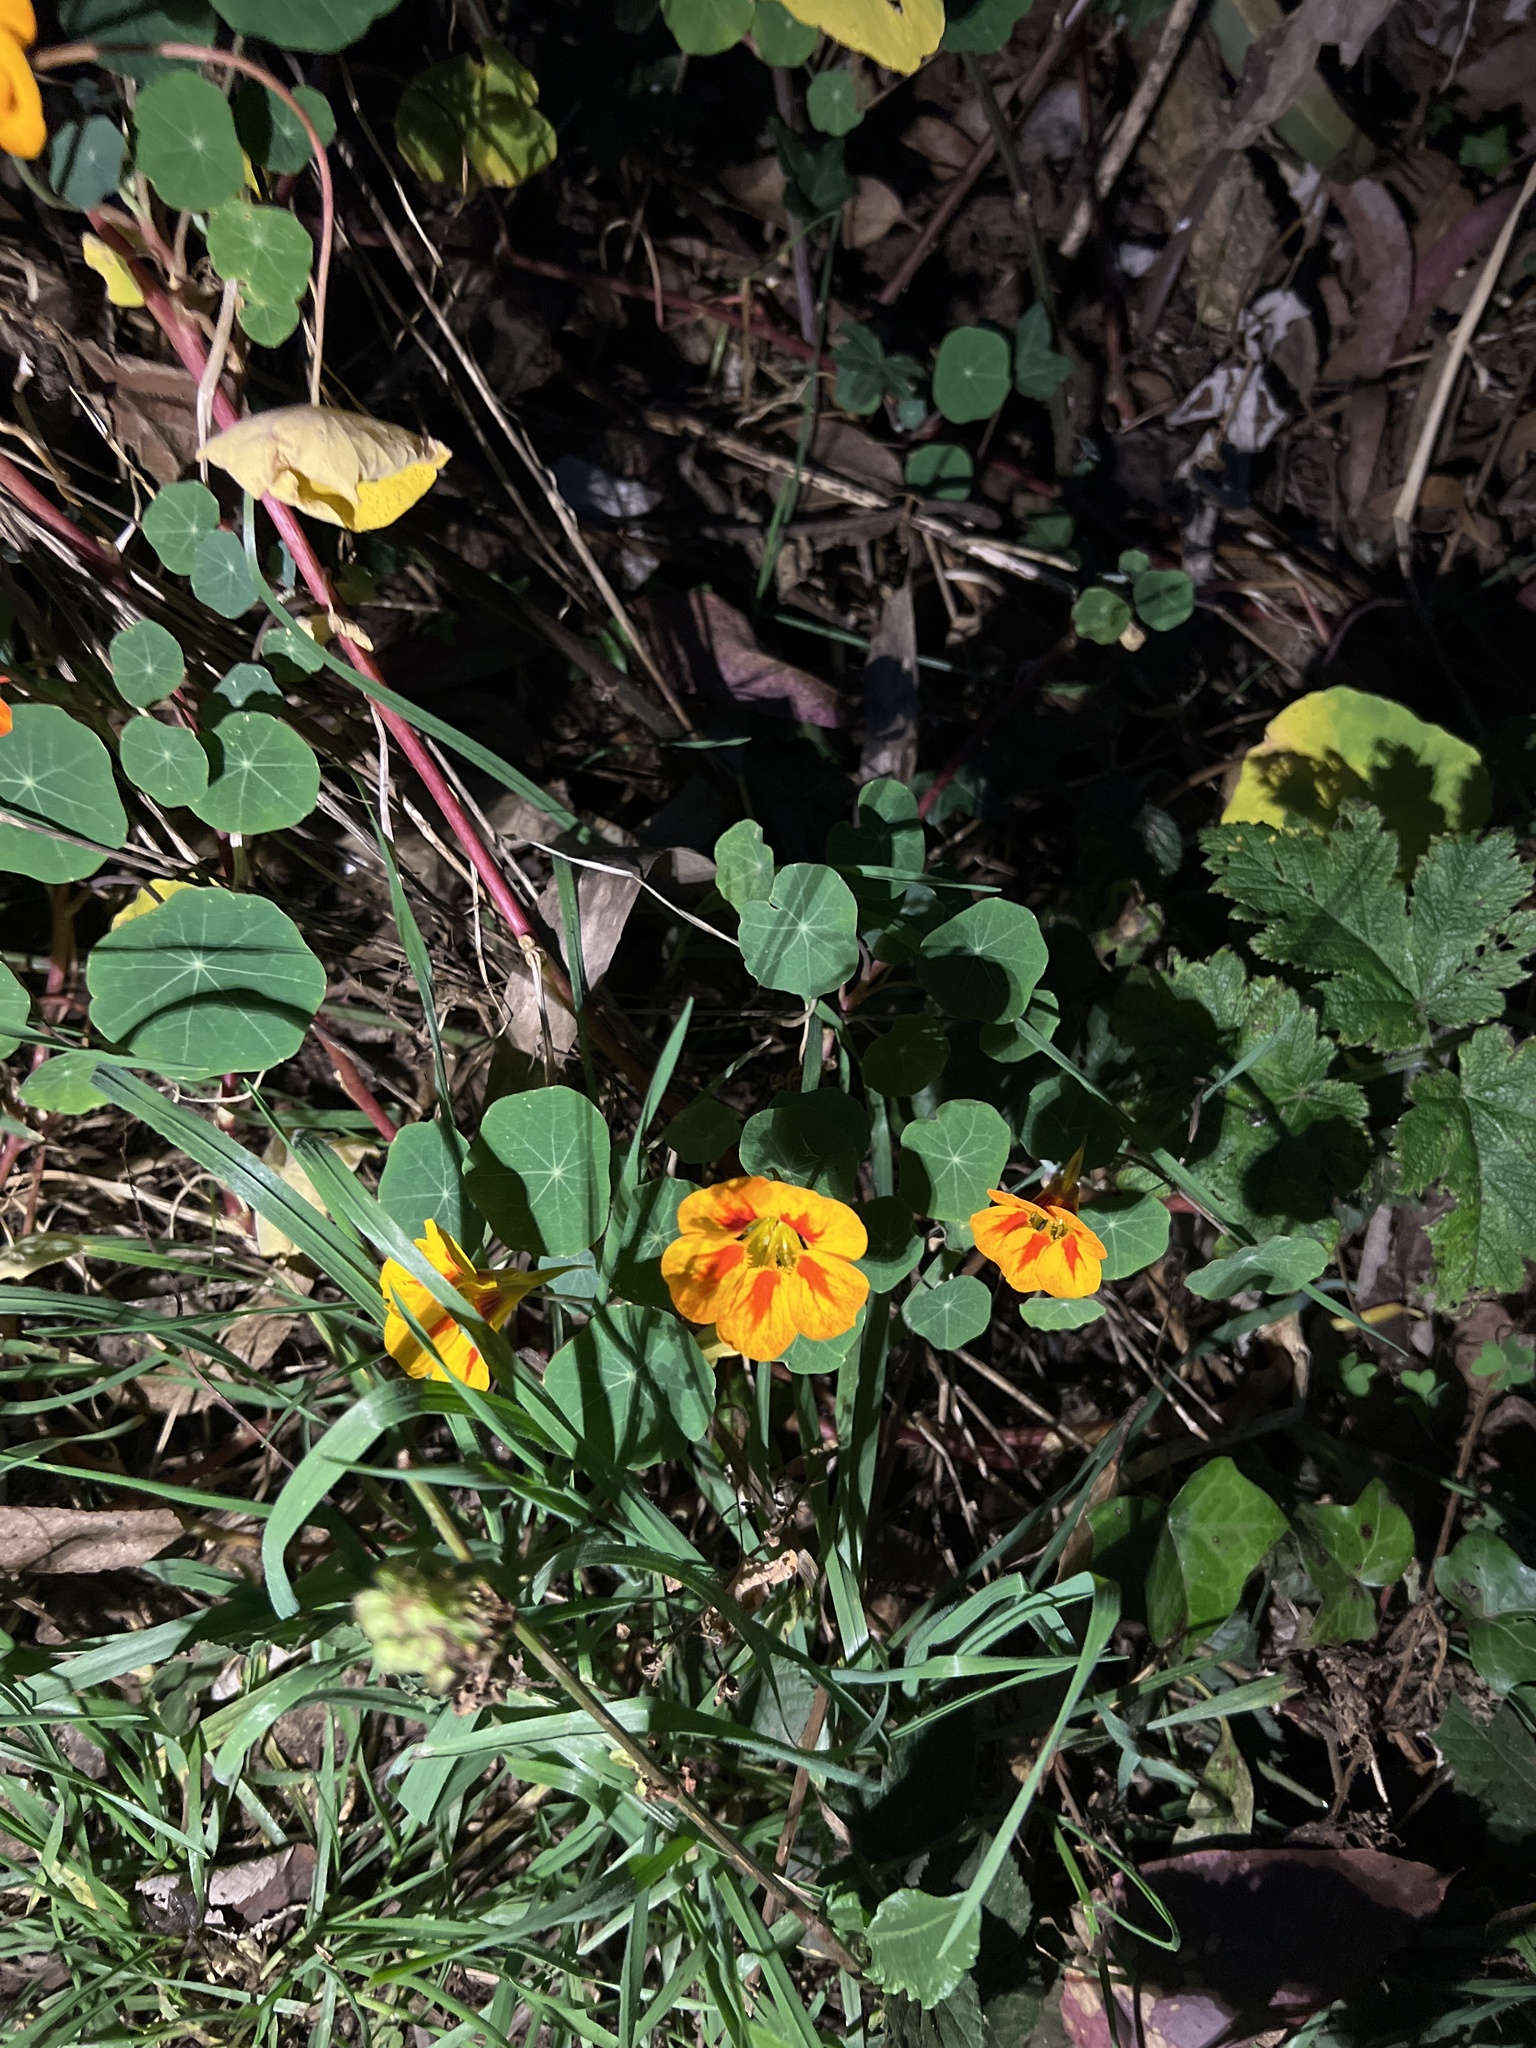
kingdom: Plantae
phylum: Tracheophyta
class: Magnoliopsida
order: Brassicales
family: Tropaeolaceae
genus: Tropaeolum
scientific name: Tropaeolum majus
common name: Nasturtium
